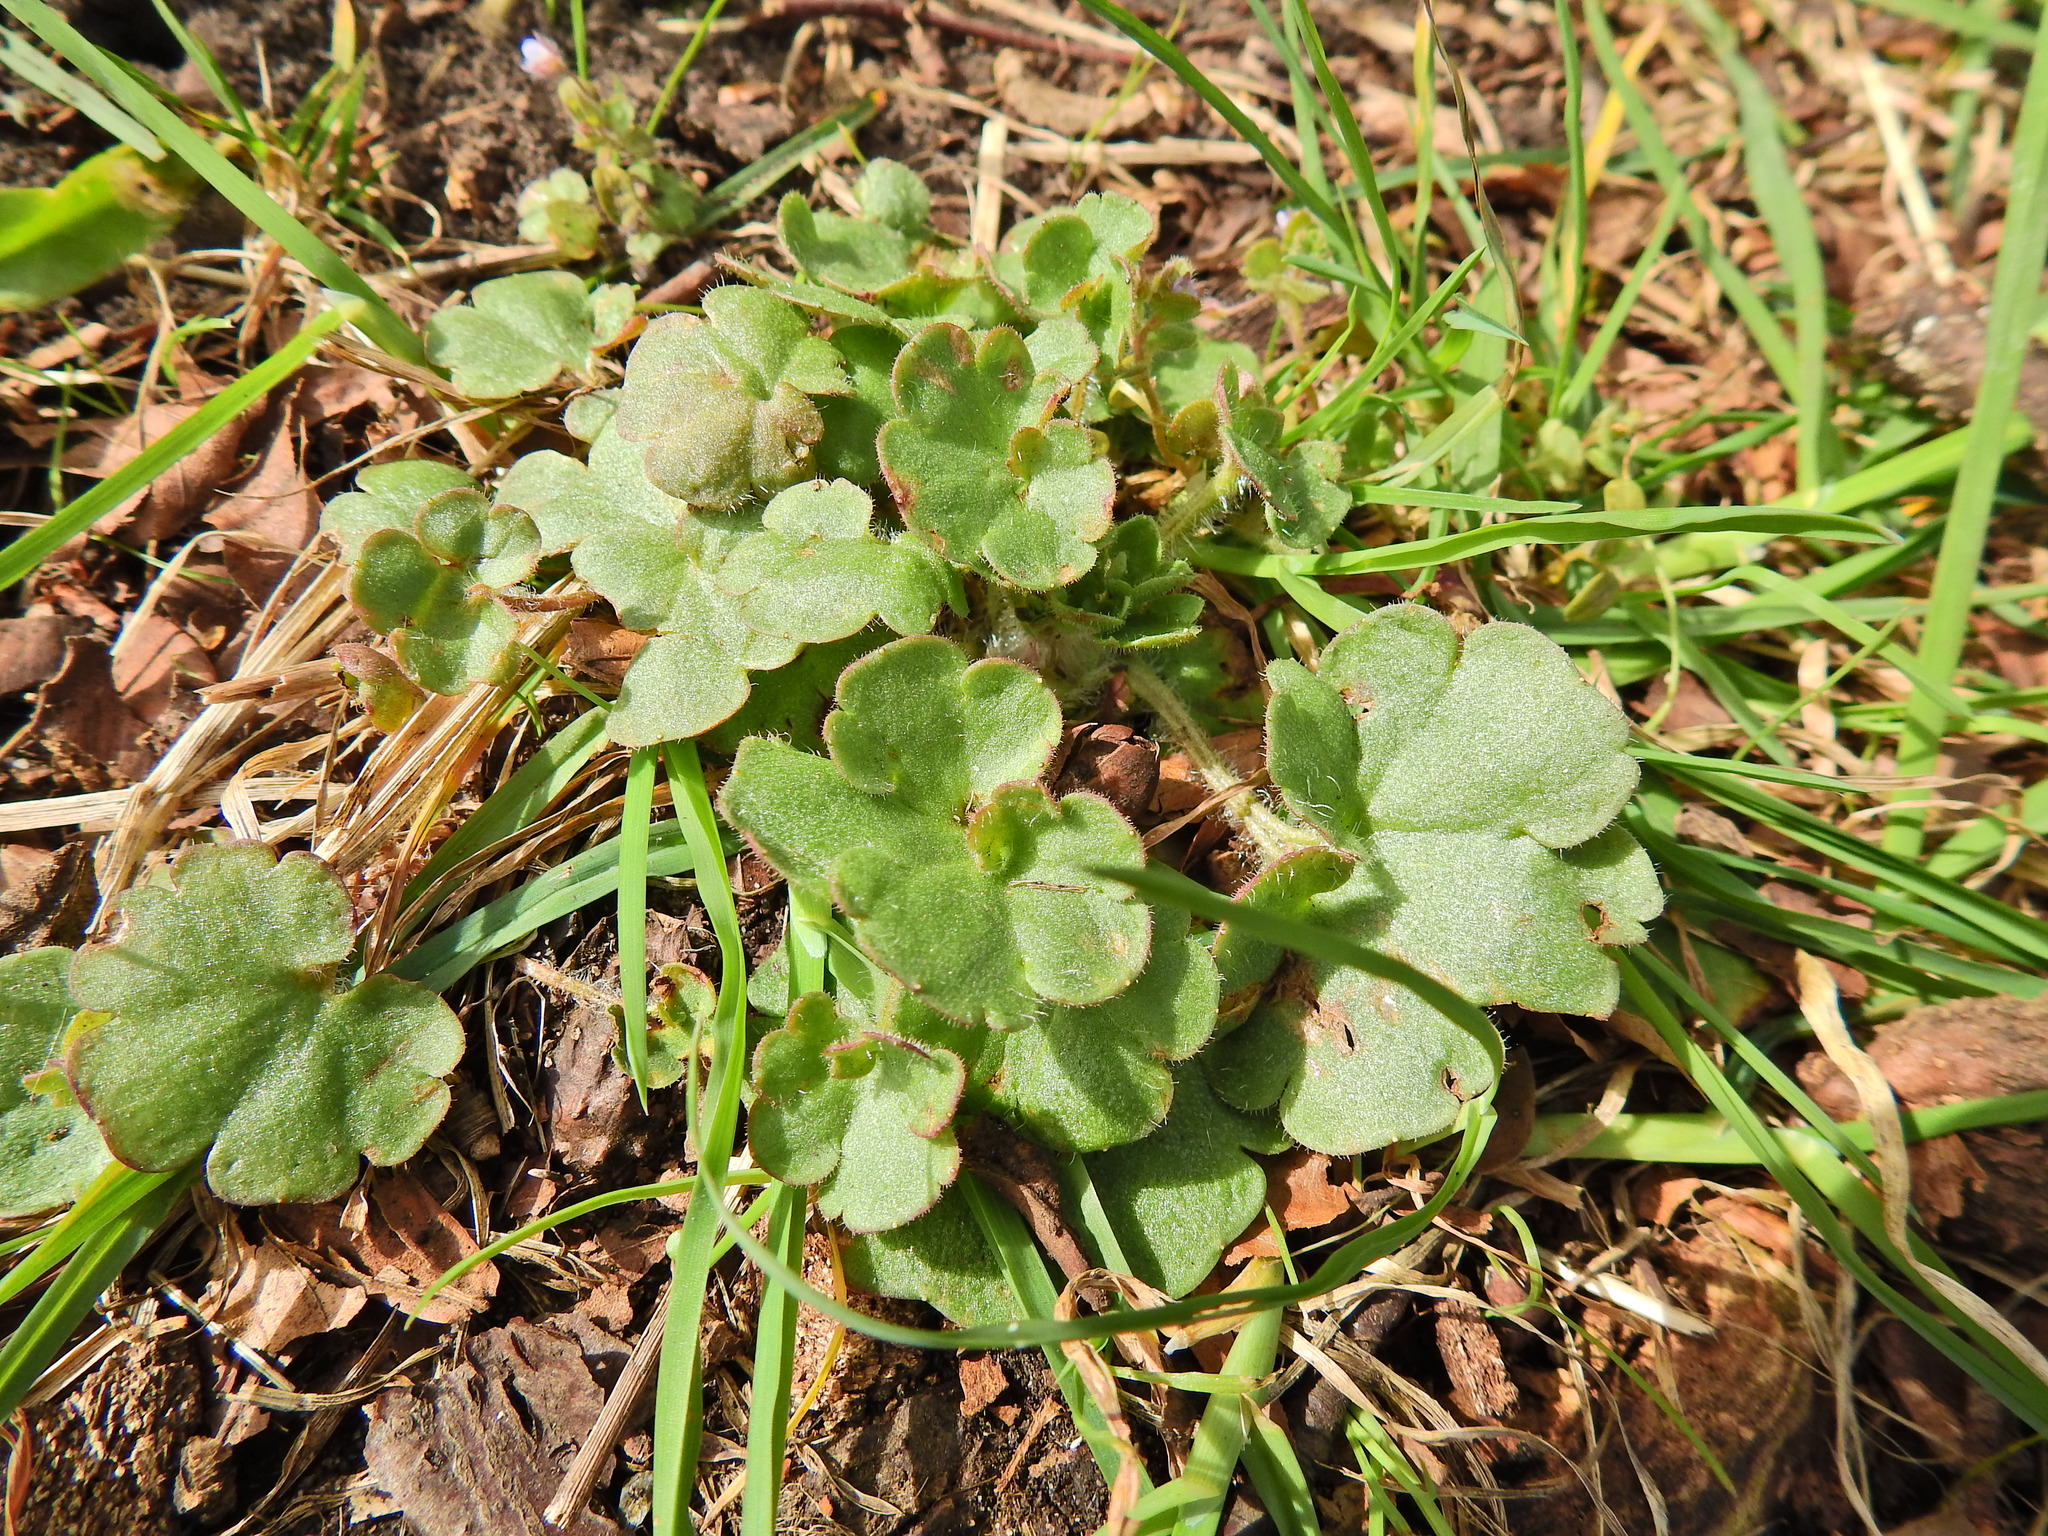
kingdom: Plantae
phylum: Tracheophyta
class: Magnoliopsida
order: Saxifragales
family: Saxifragaceae
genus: Saxifraga
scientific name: Saxifraga granulata
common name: Meadow saxifrage
